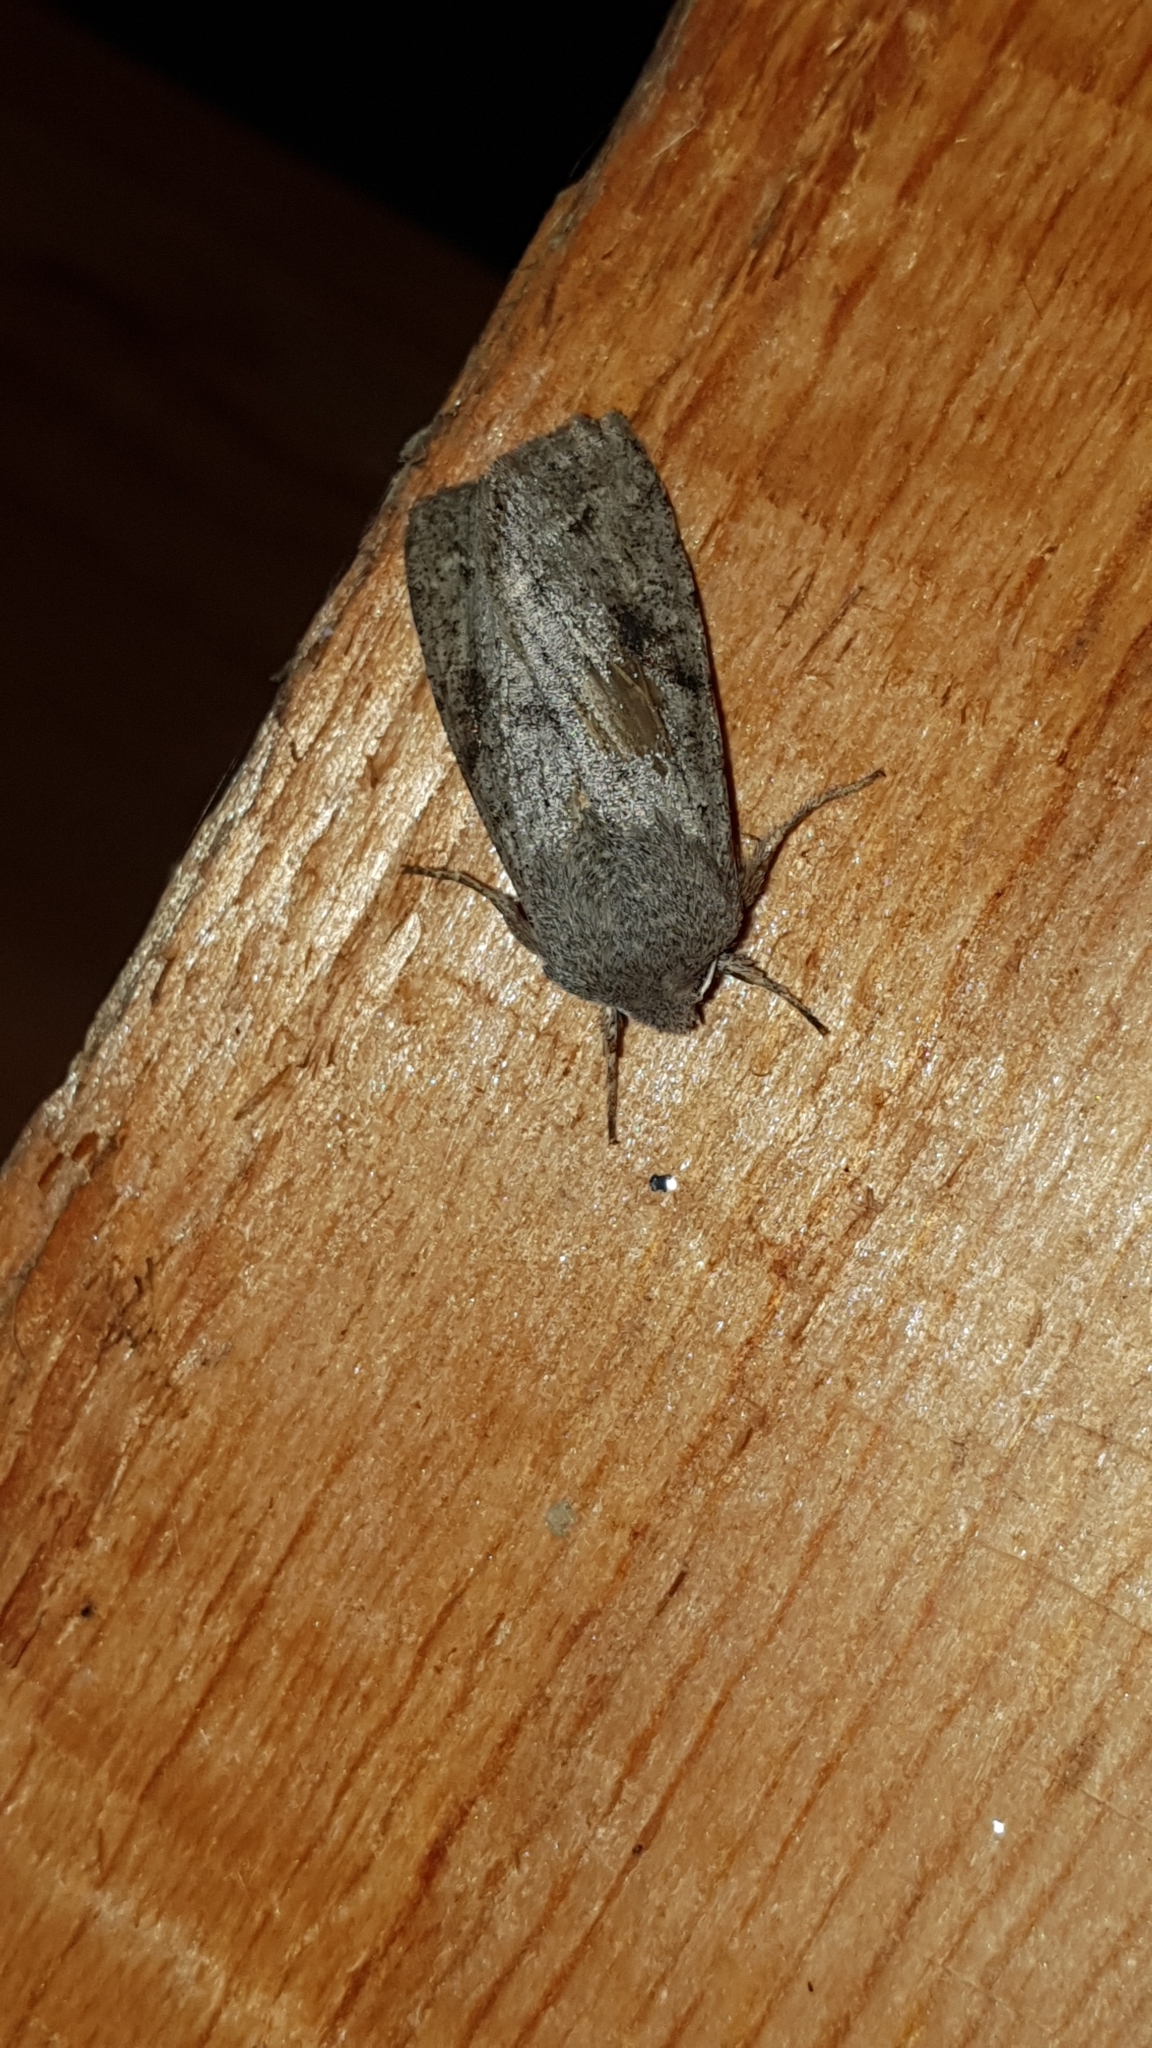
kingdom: Animalia
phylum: Arthropoda
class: Insecta
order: Lepidoptera
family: Noctuidae
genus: Orthosia
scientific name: Orthosia incerta
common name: Clouded drab
